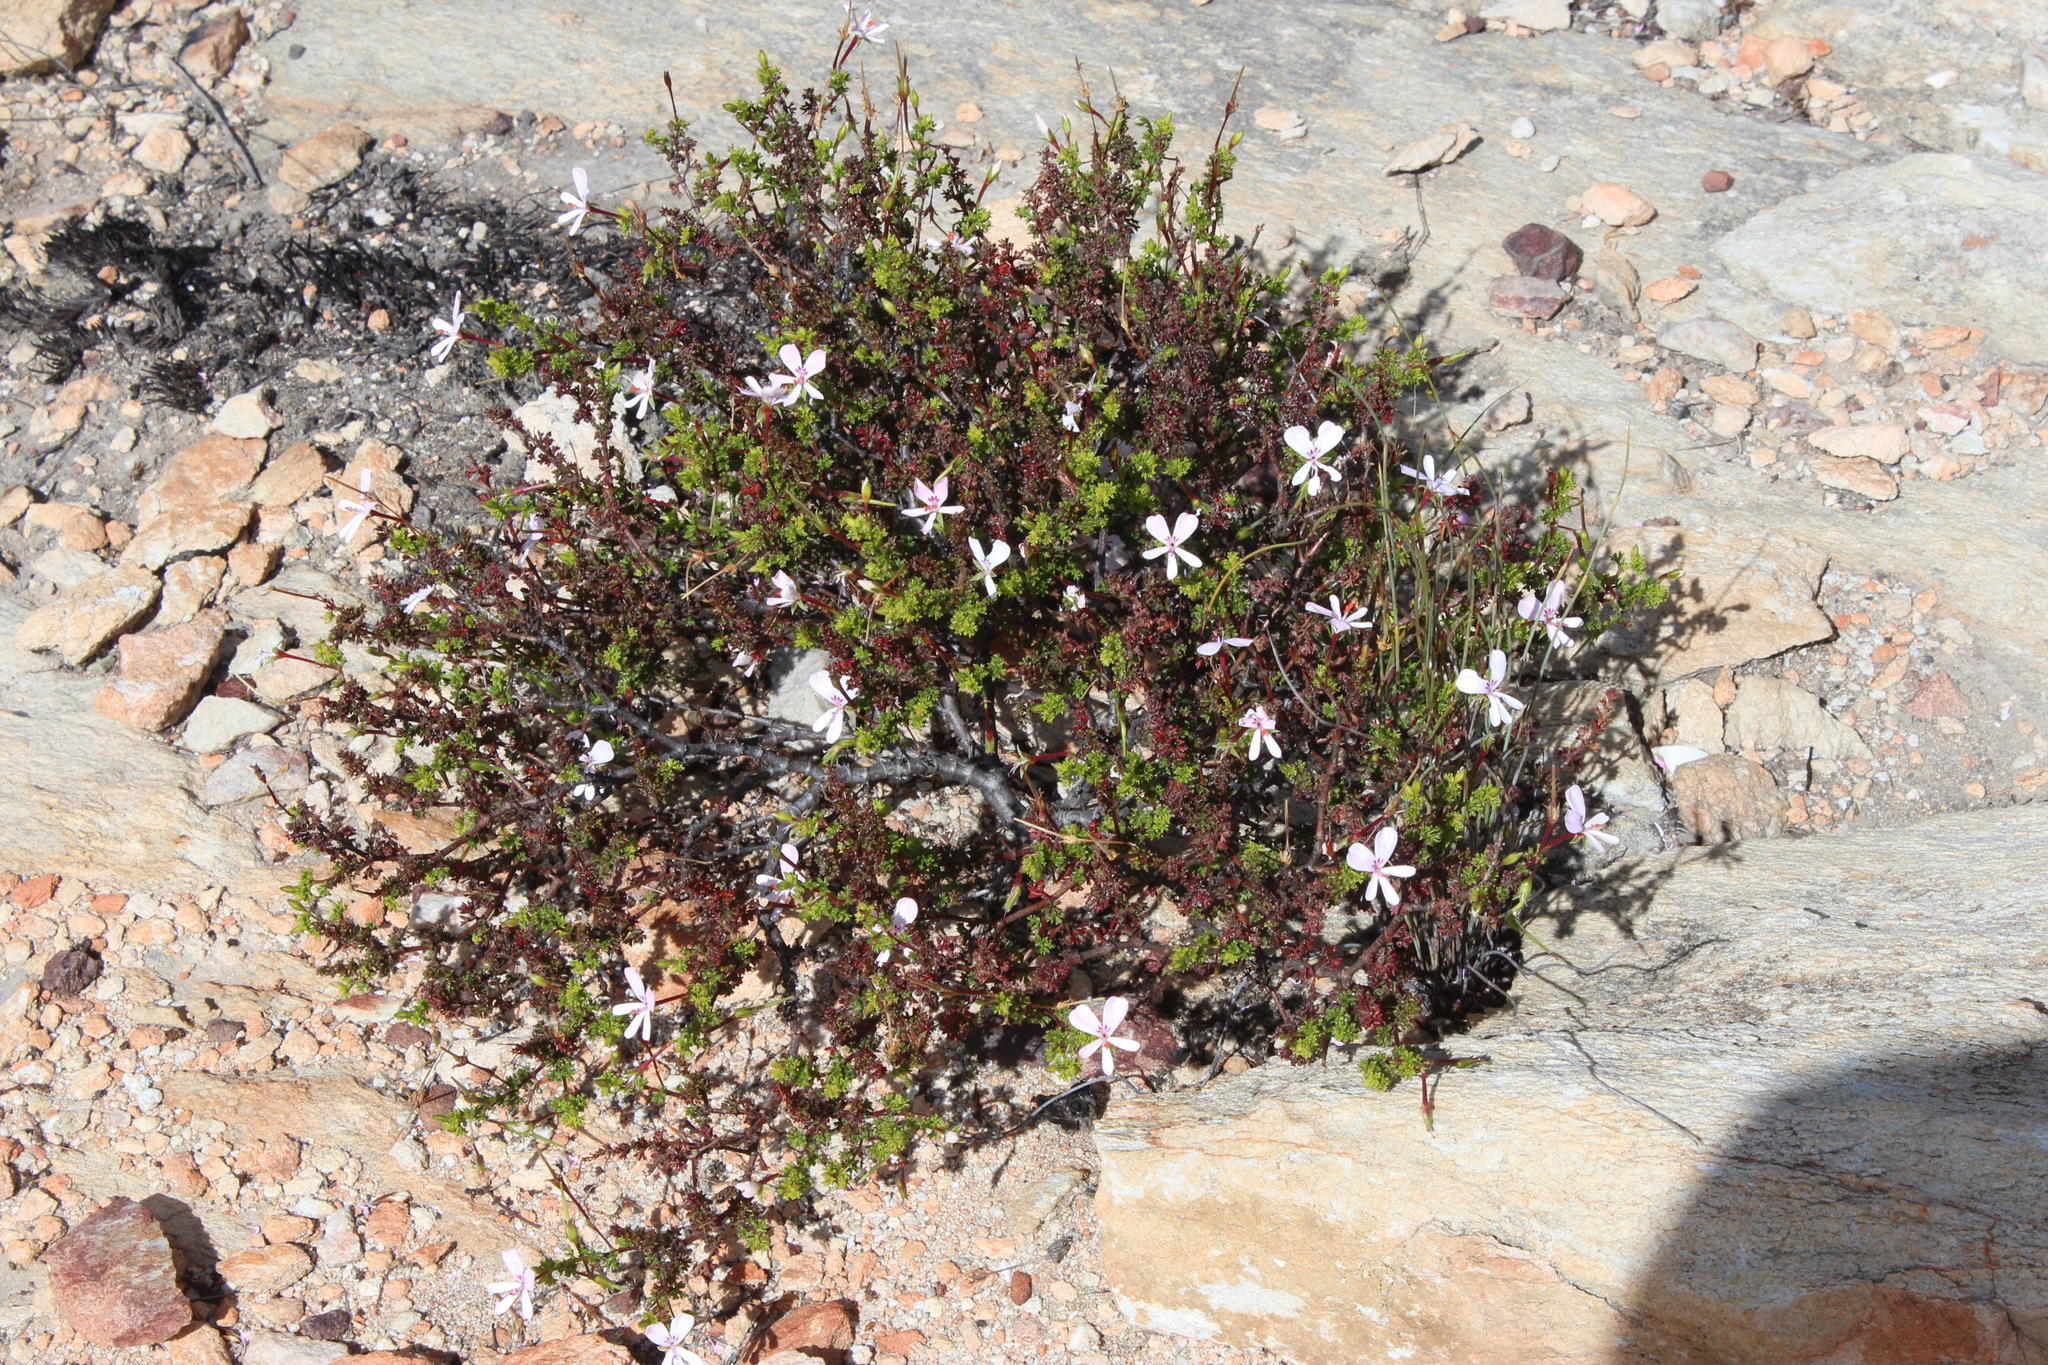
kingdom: Plantae
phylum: Tracheophyta
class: Magnoliopsida
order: Geraniales
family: Geraniaceae
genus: Pelargonium
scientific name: Pelargonium fruticosum
